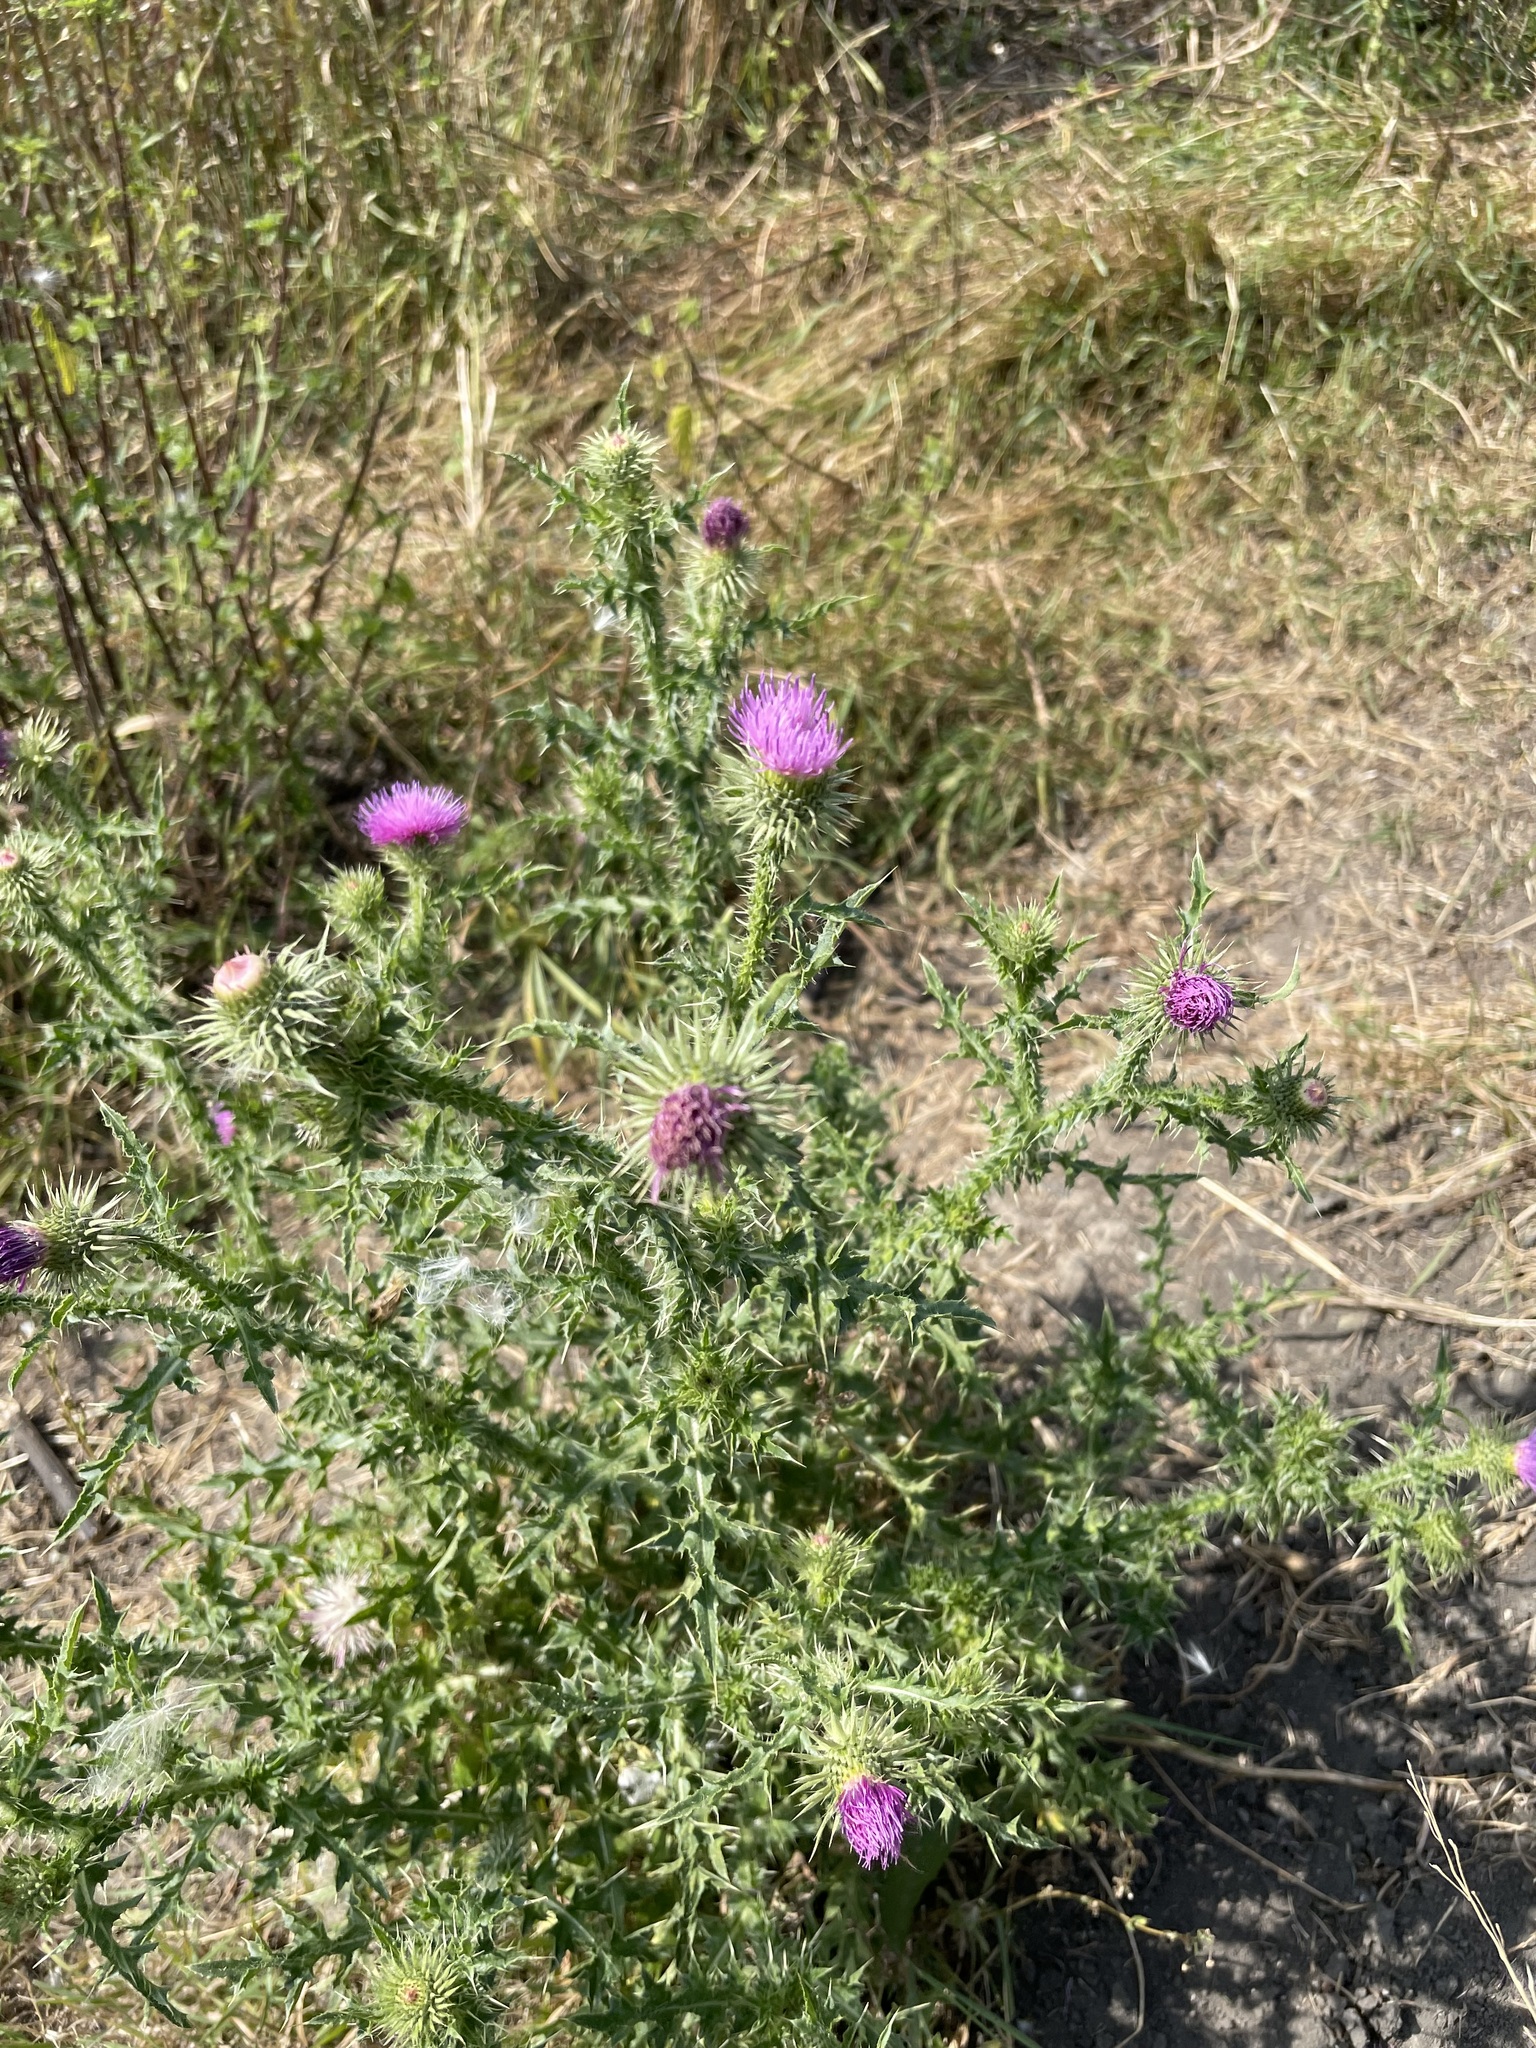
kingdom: Plantae
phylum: Tracheophyta
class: Magnoliopsida
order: Asterales
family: Asteraceae
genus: Carduus
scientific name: Carduus acanthoides
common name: Plumeless thistle
